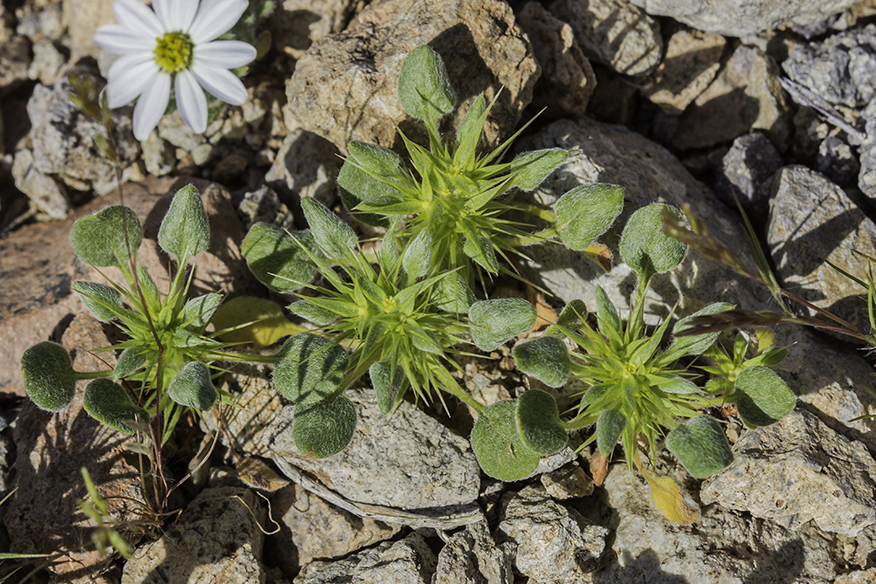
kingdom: Plantae
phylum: Tracheophyta
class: Magnoliopsida
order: Caryophyllales
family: Polygonaceae
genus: Chorizanthe
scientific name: Chorizanthe rigida
